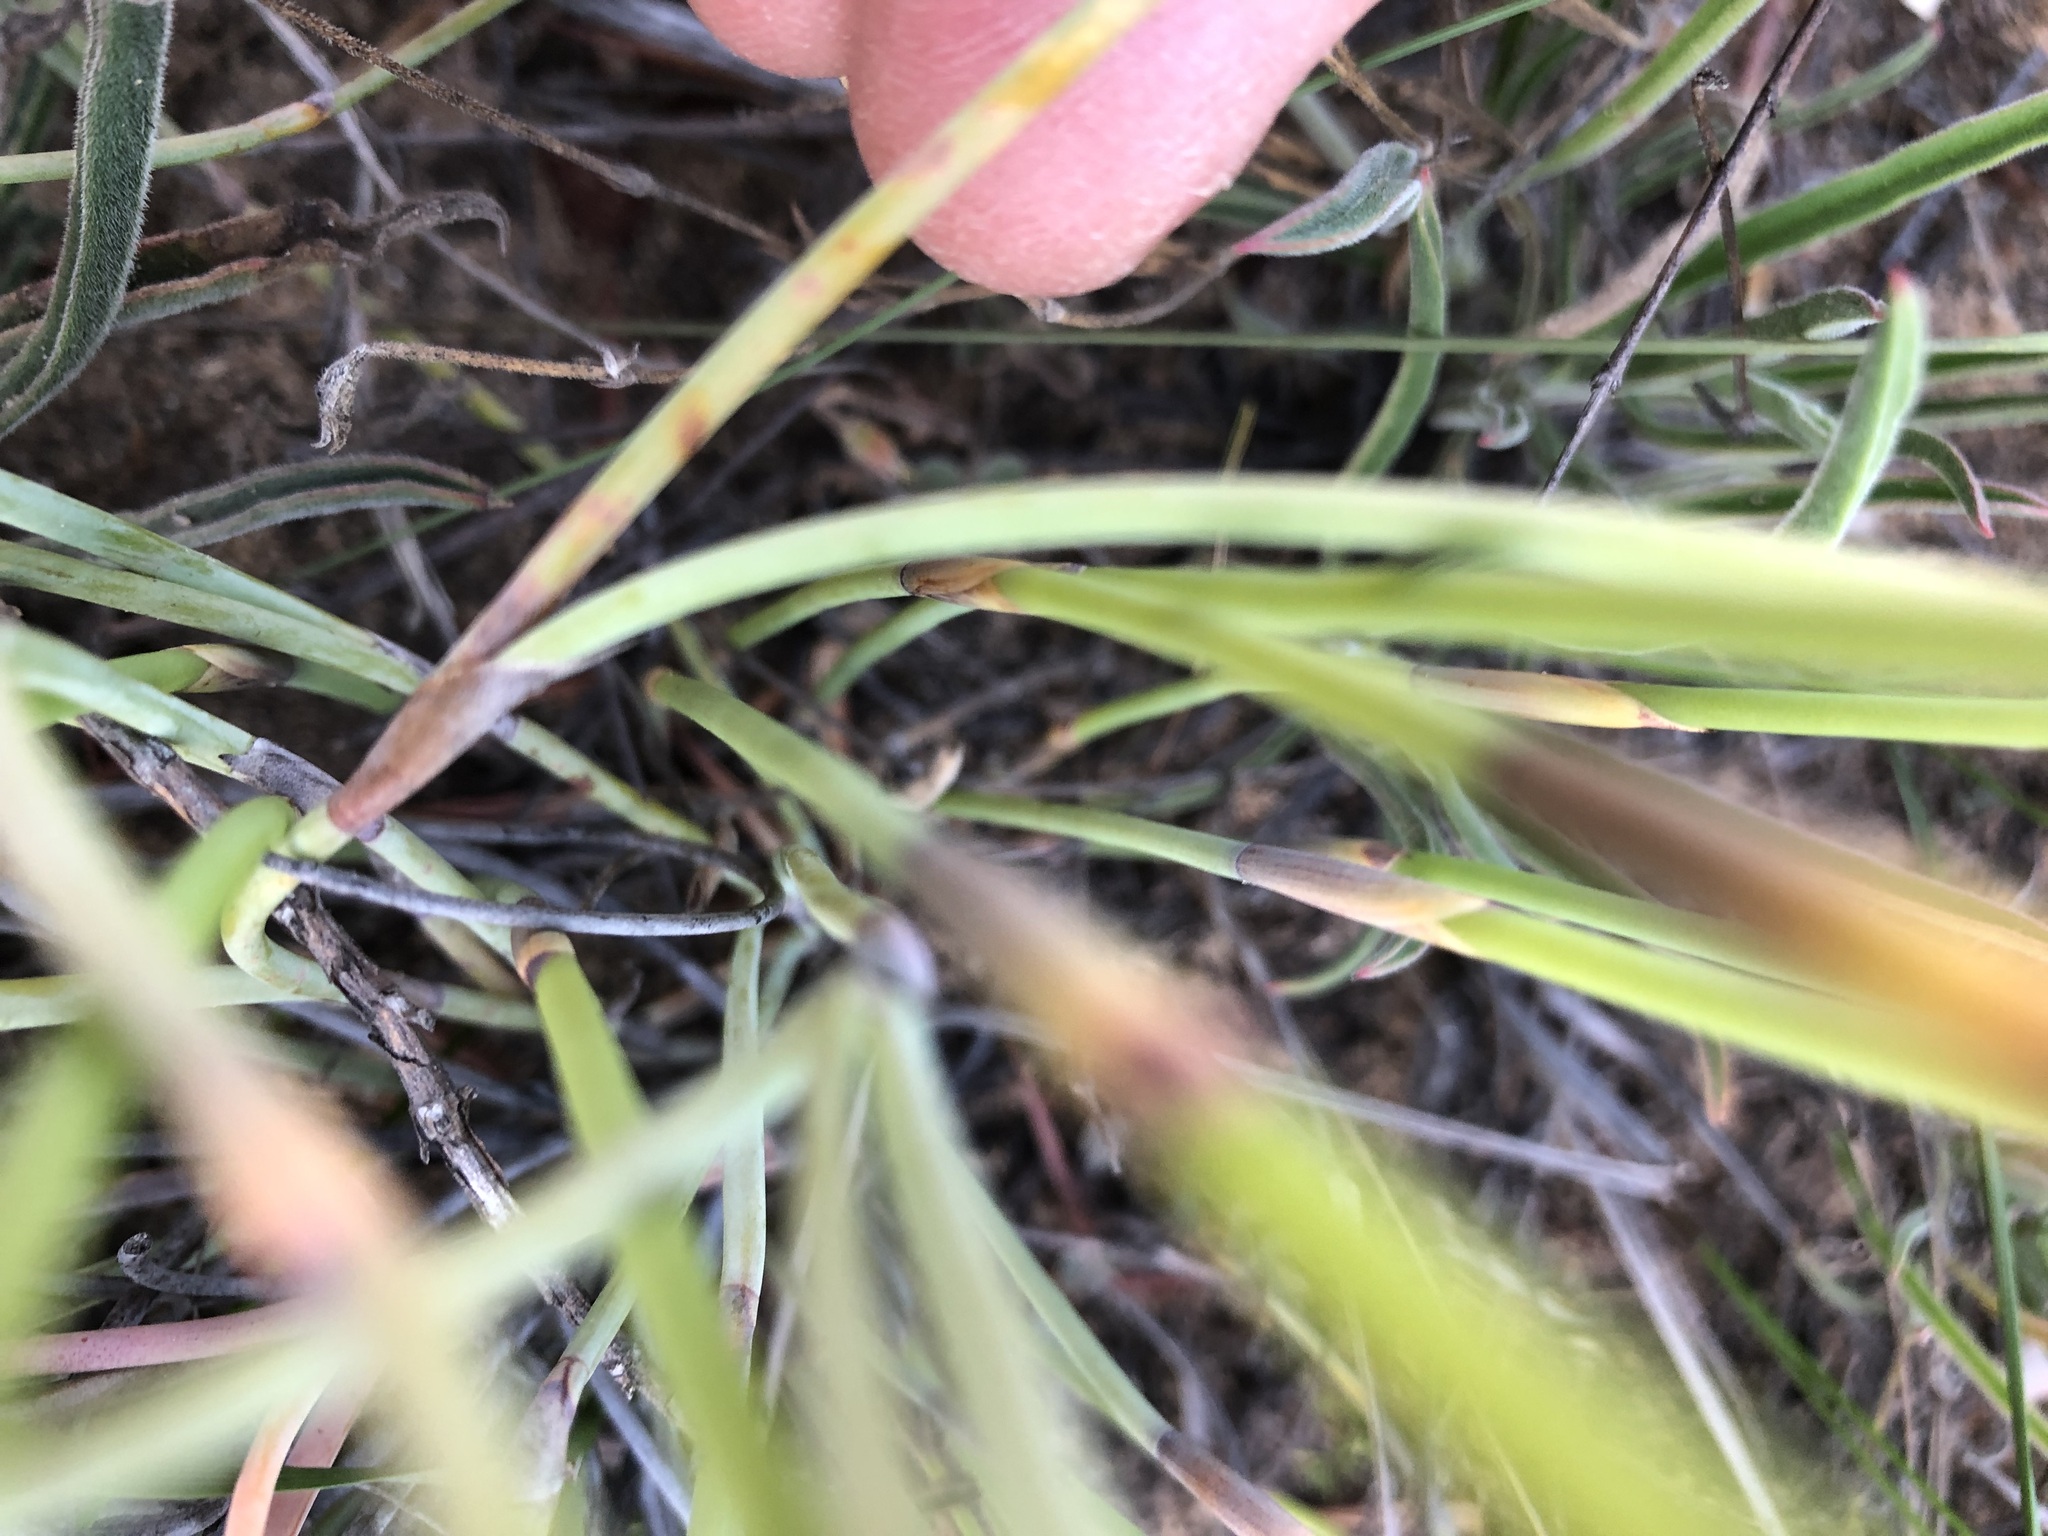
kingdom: Plantae
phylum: Tracheophyta
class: Liliopsida
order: Poales
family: Restionaceae
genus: Cannomois
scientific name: Cannomois primosii
